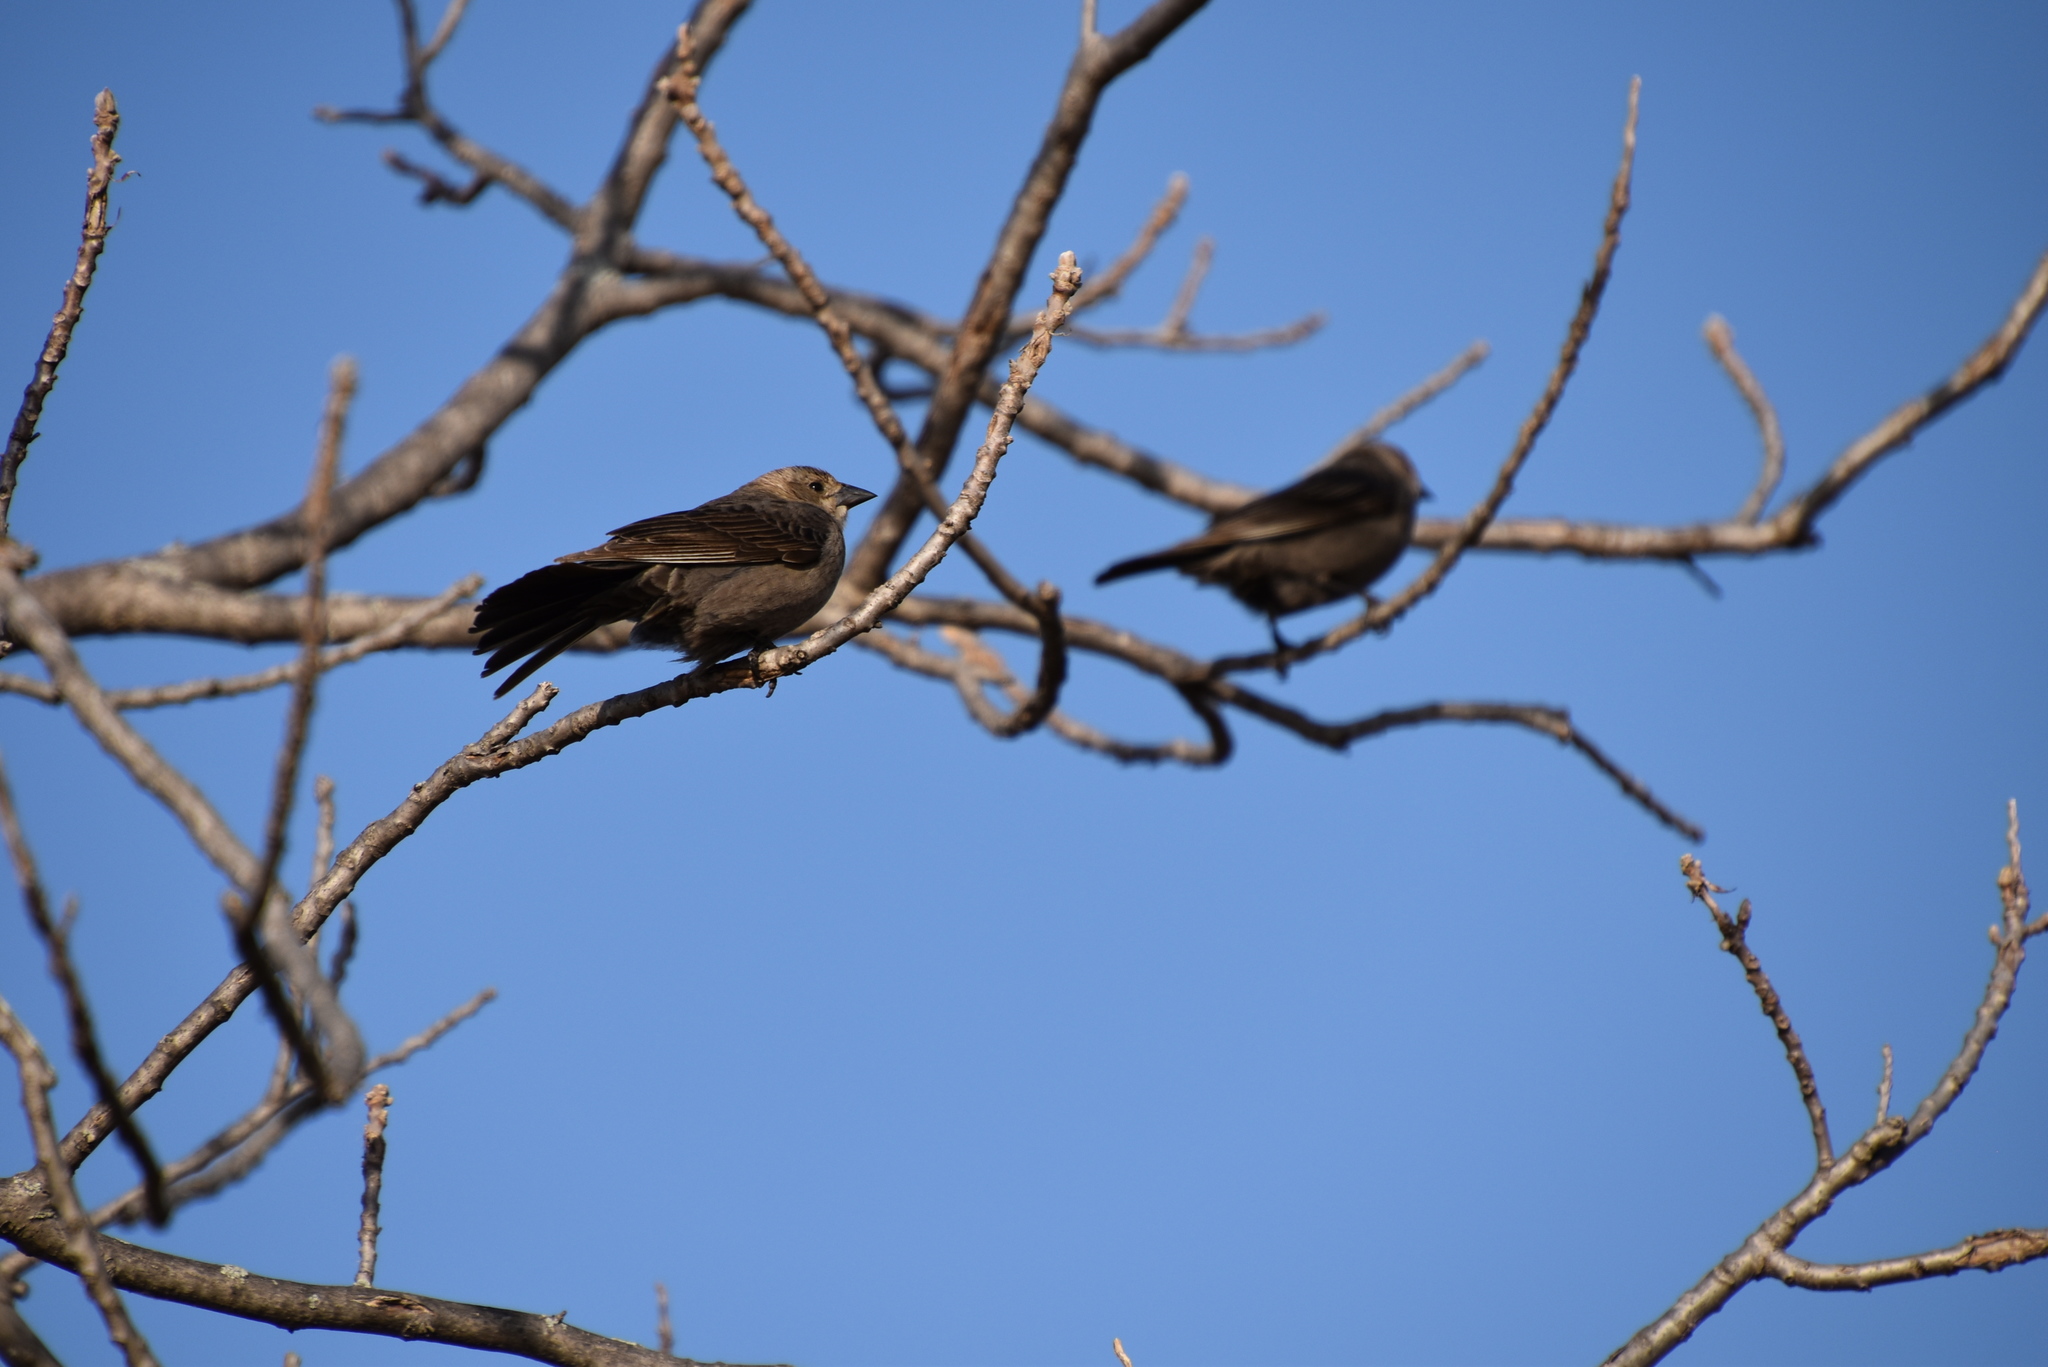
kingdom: Animalia
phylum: Chordata
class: Aves
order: Passeriformes
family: Icteridae
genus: Molothrus
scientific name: Molothrus ater
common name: Brown-headed cowbird
